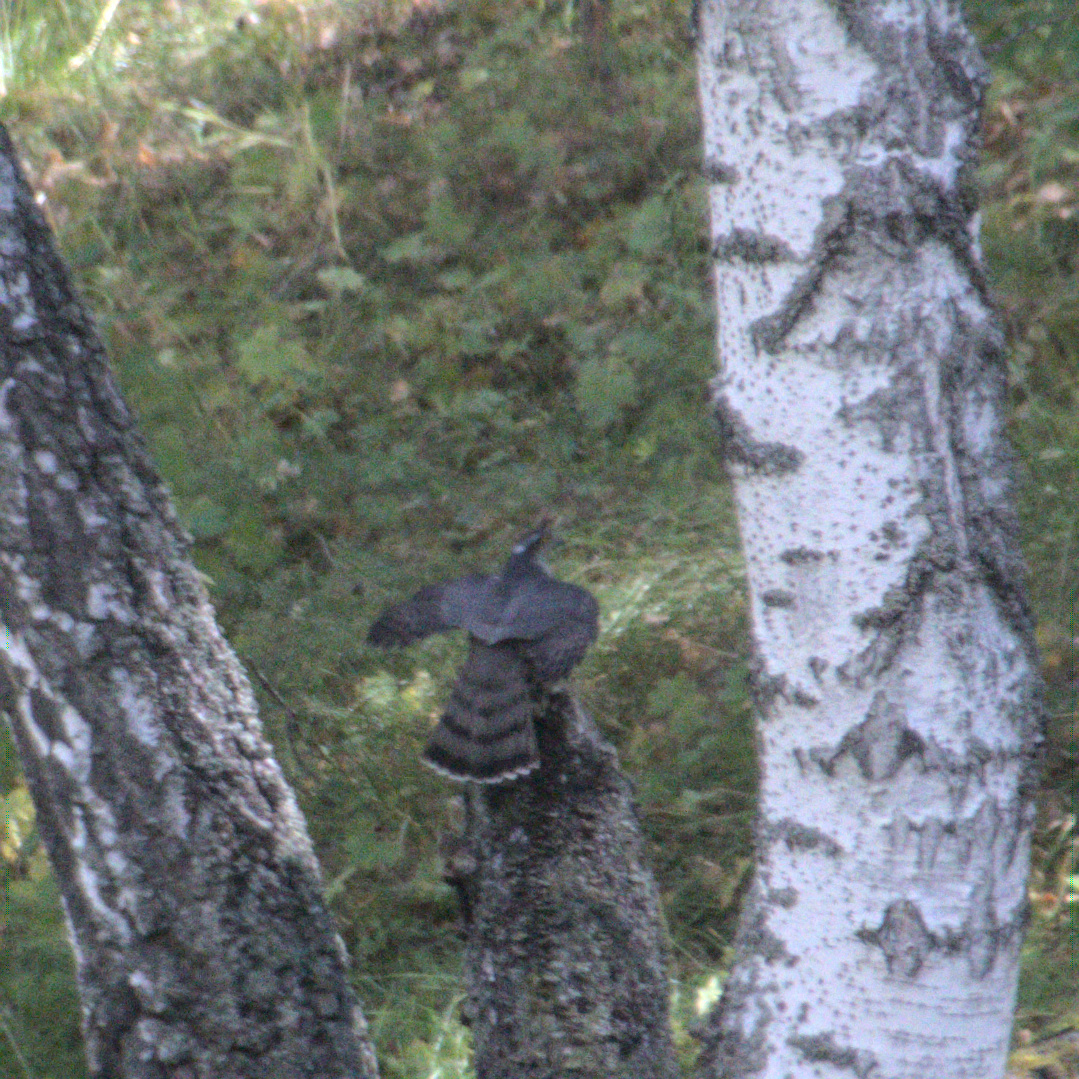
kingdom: Animalia
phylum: Chordata
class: Aves
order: Accipitriformes
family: Accipitridae
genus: Accipiter
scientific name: Accipiter nisus
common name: Eurasian sparrowhawk
